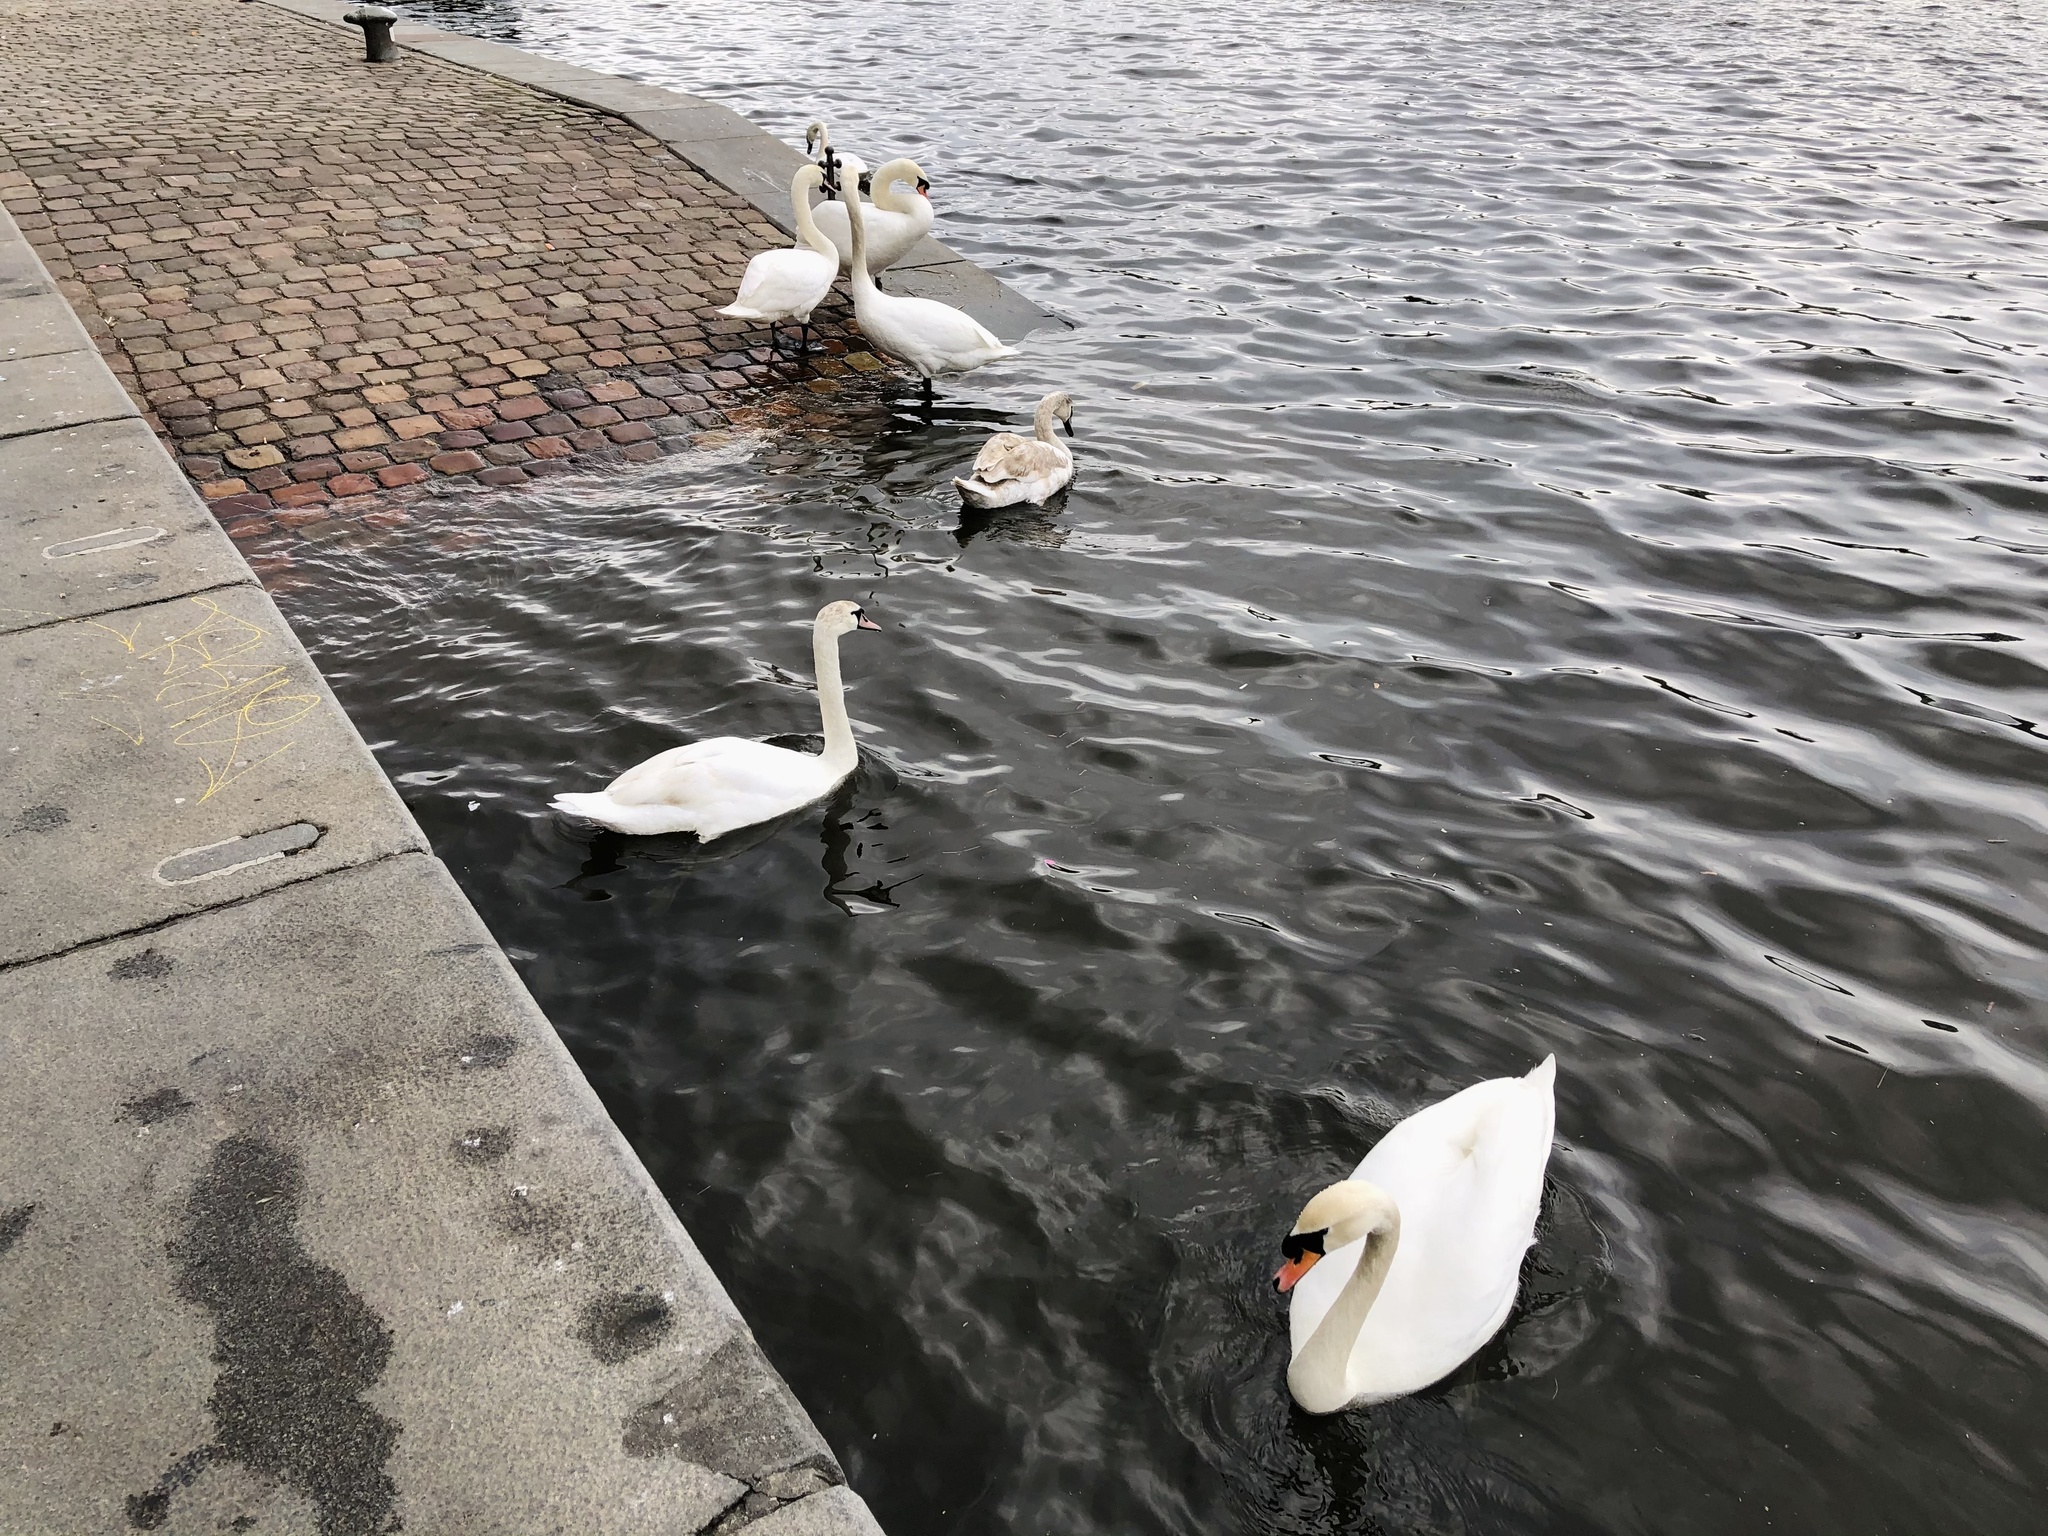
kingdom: Animalia
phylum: Chordata
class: Aves
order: Anseriformes
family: Anatidae
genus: Cygnus
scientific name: Cygnus olor
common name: Mute swan
